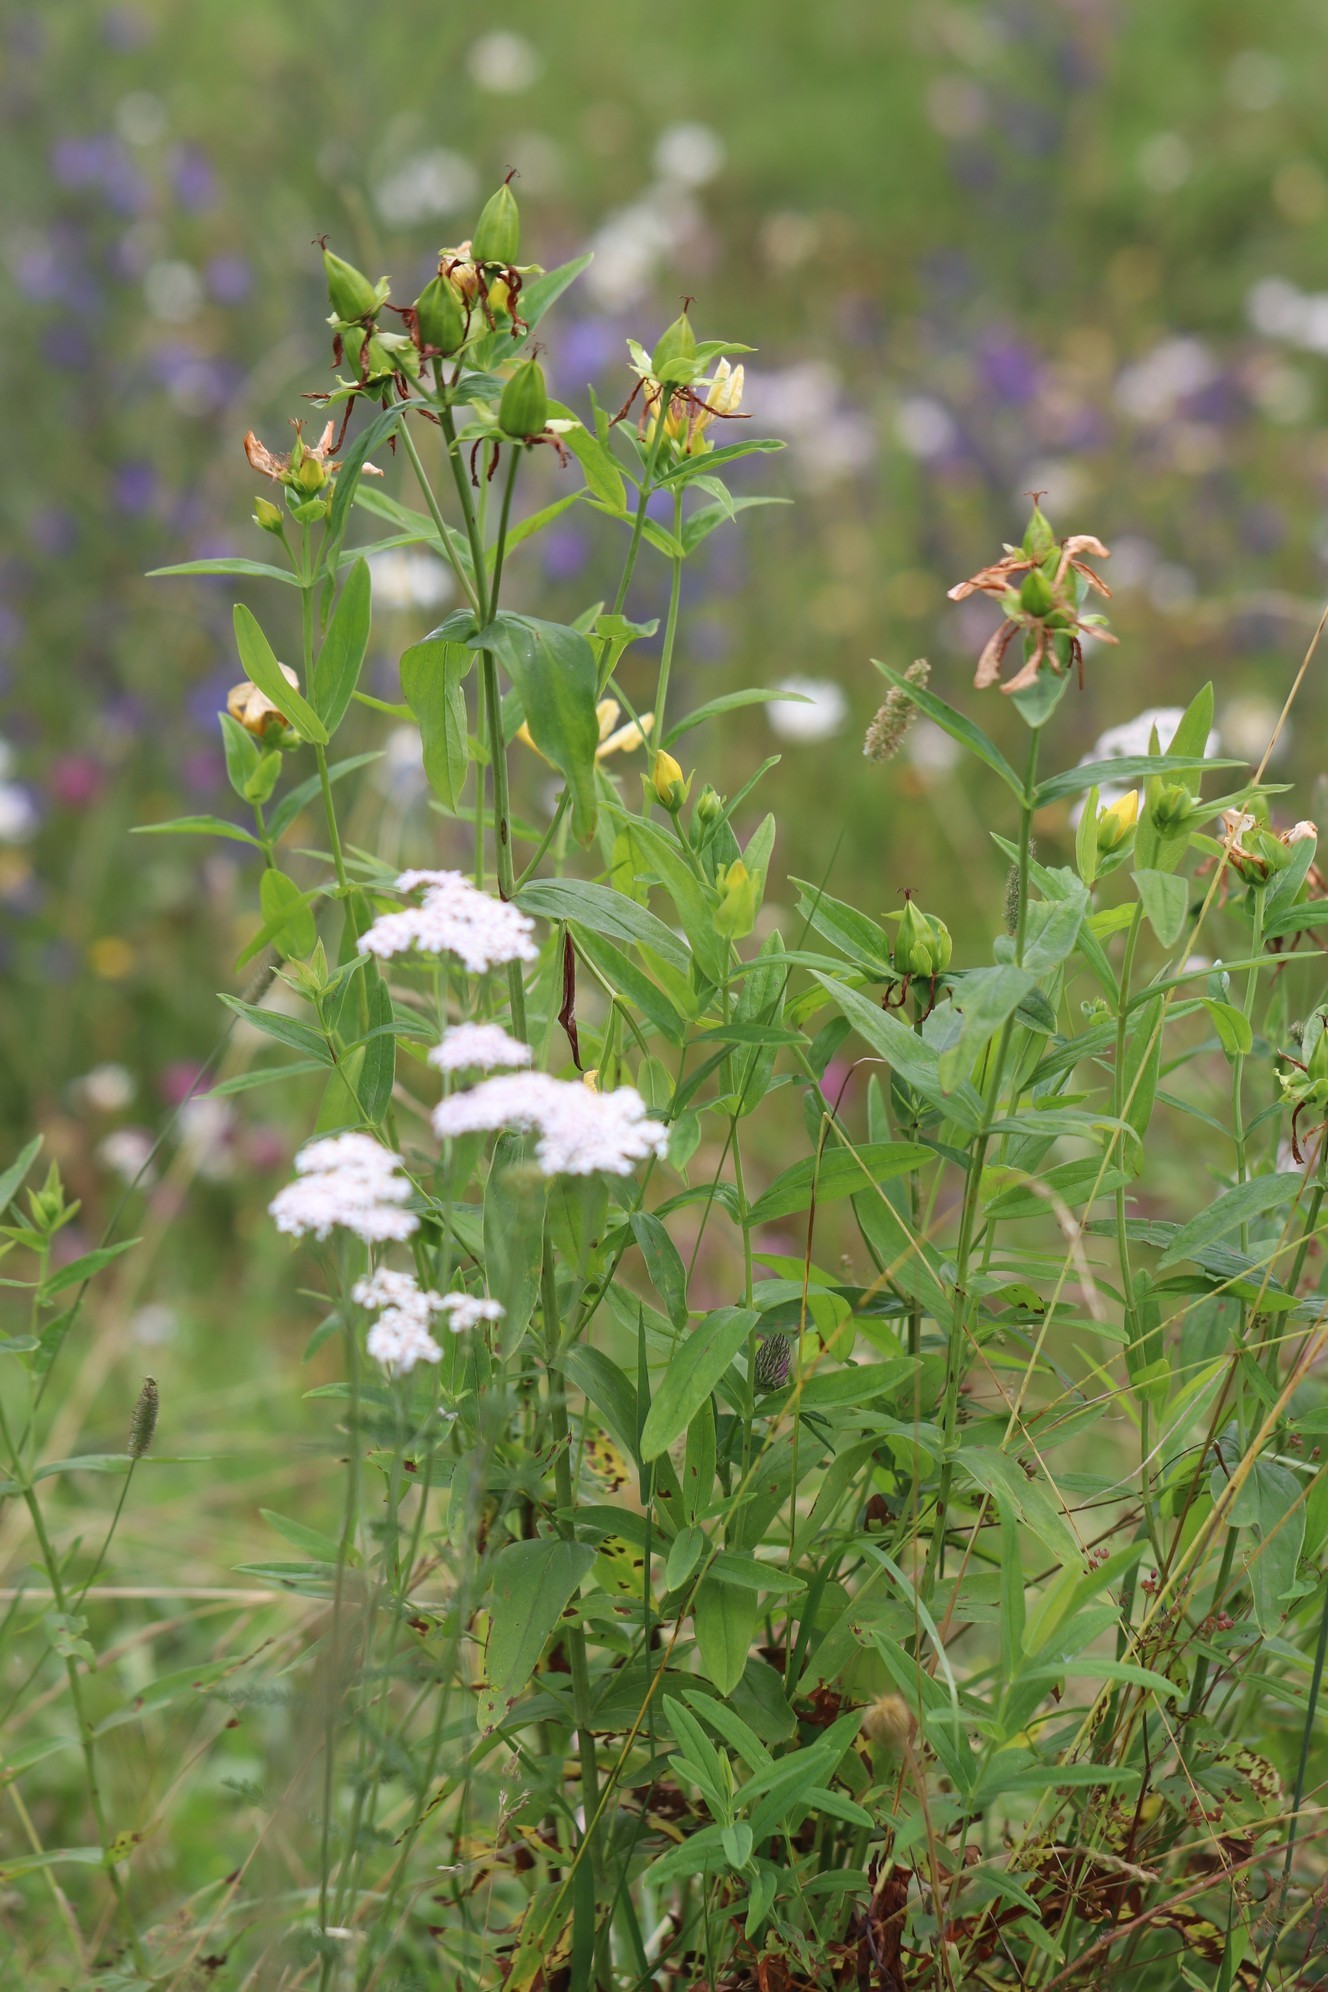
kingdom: Plantae
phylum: Tracheophyta
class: Magnoliopsida
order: Malpighiales
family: Hypericaceae
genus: Hypericum
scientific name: Hypericum ascyron
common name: Giant st. john's-wort
